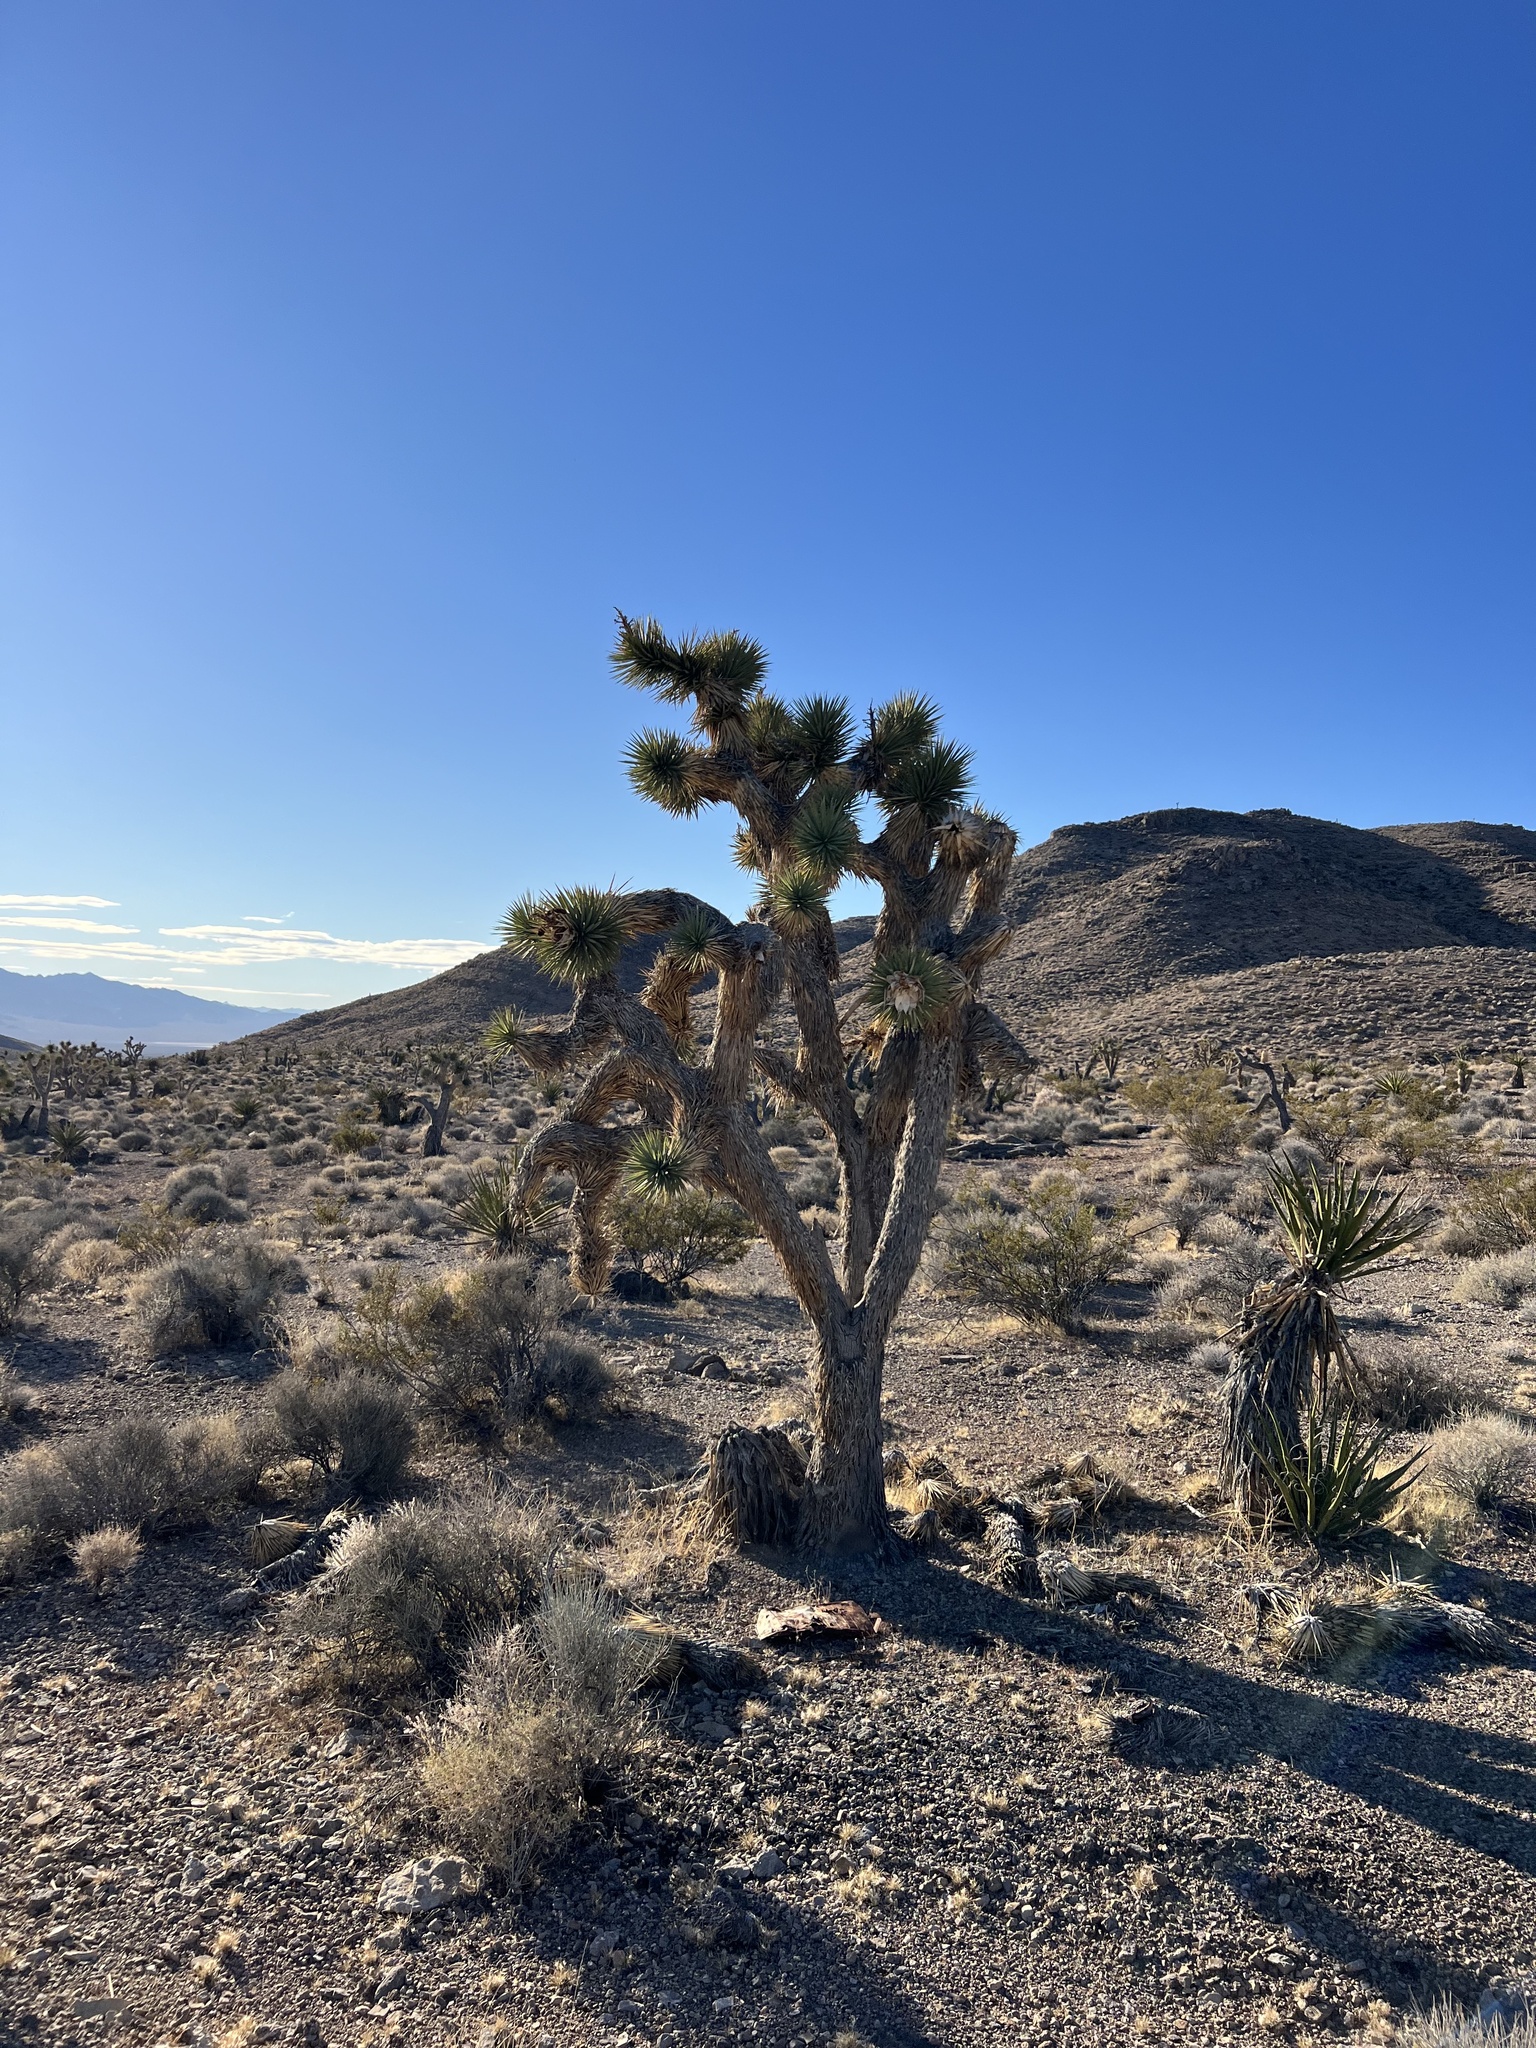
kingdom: Plantae
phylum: Tracheophyta
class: Liliopsida
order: Asparagales
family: Asparagaceae
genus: Yucca
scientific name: Yucca brevifolia
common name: Joshua tree
